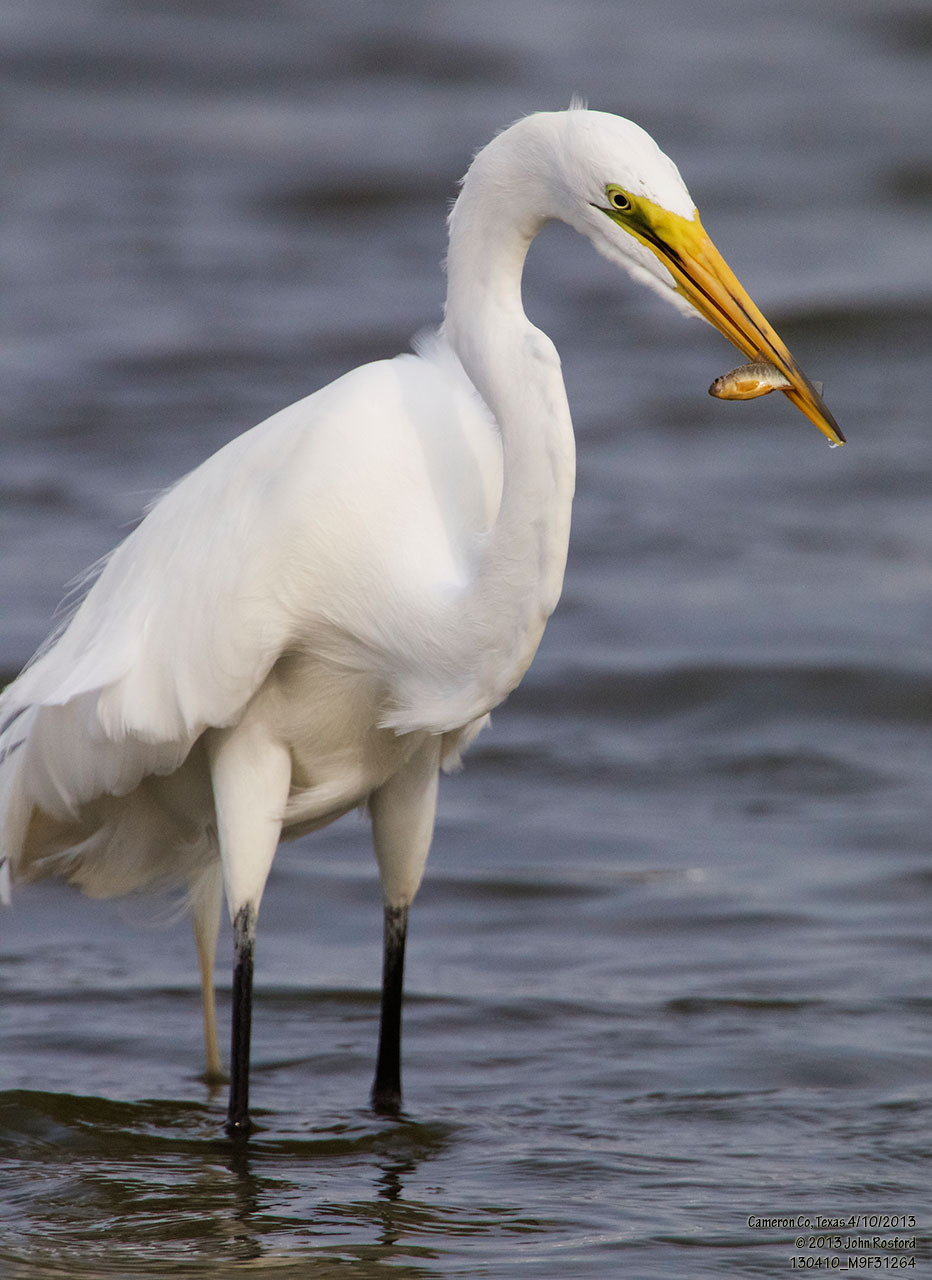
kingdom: Animalia
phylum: Chordata
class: Aves
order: Pelecaniformes
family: Ardeidae
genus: Ardea
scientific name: Ardea alba
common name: Great egret
